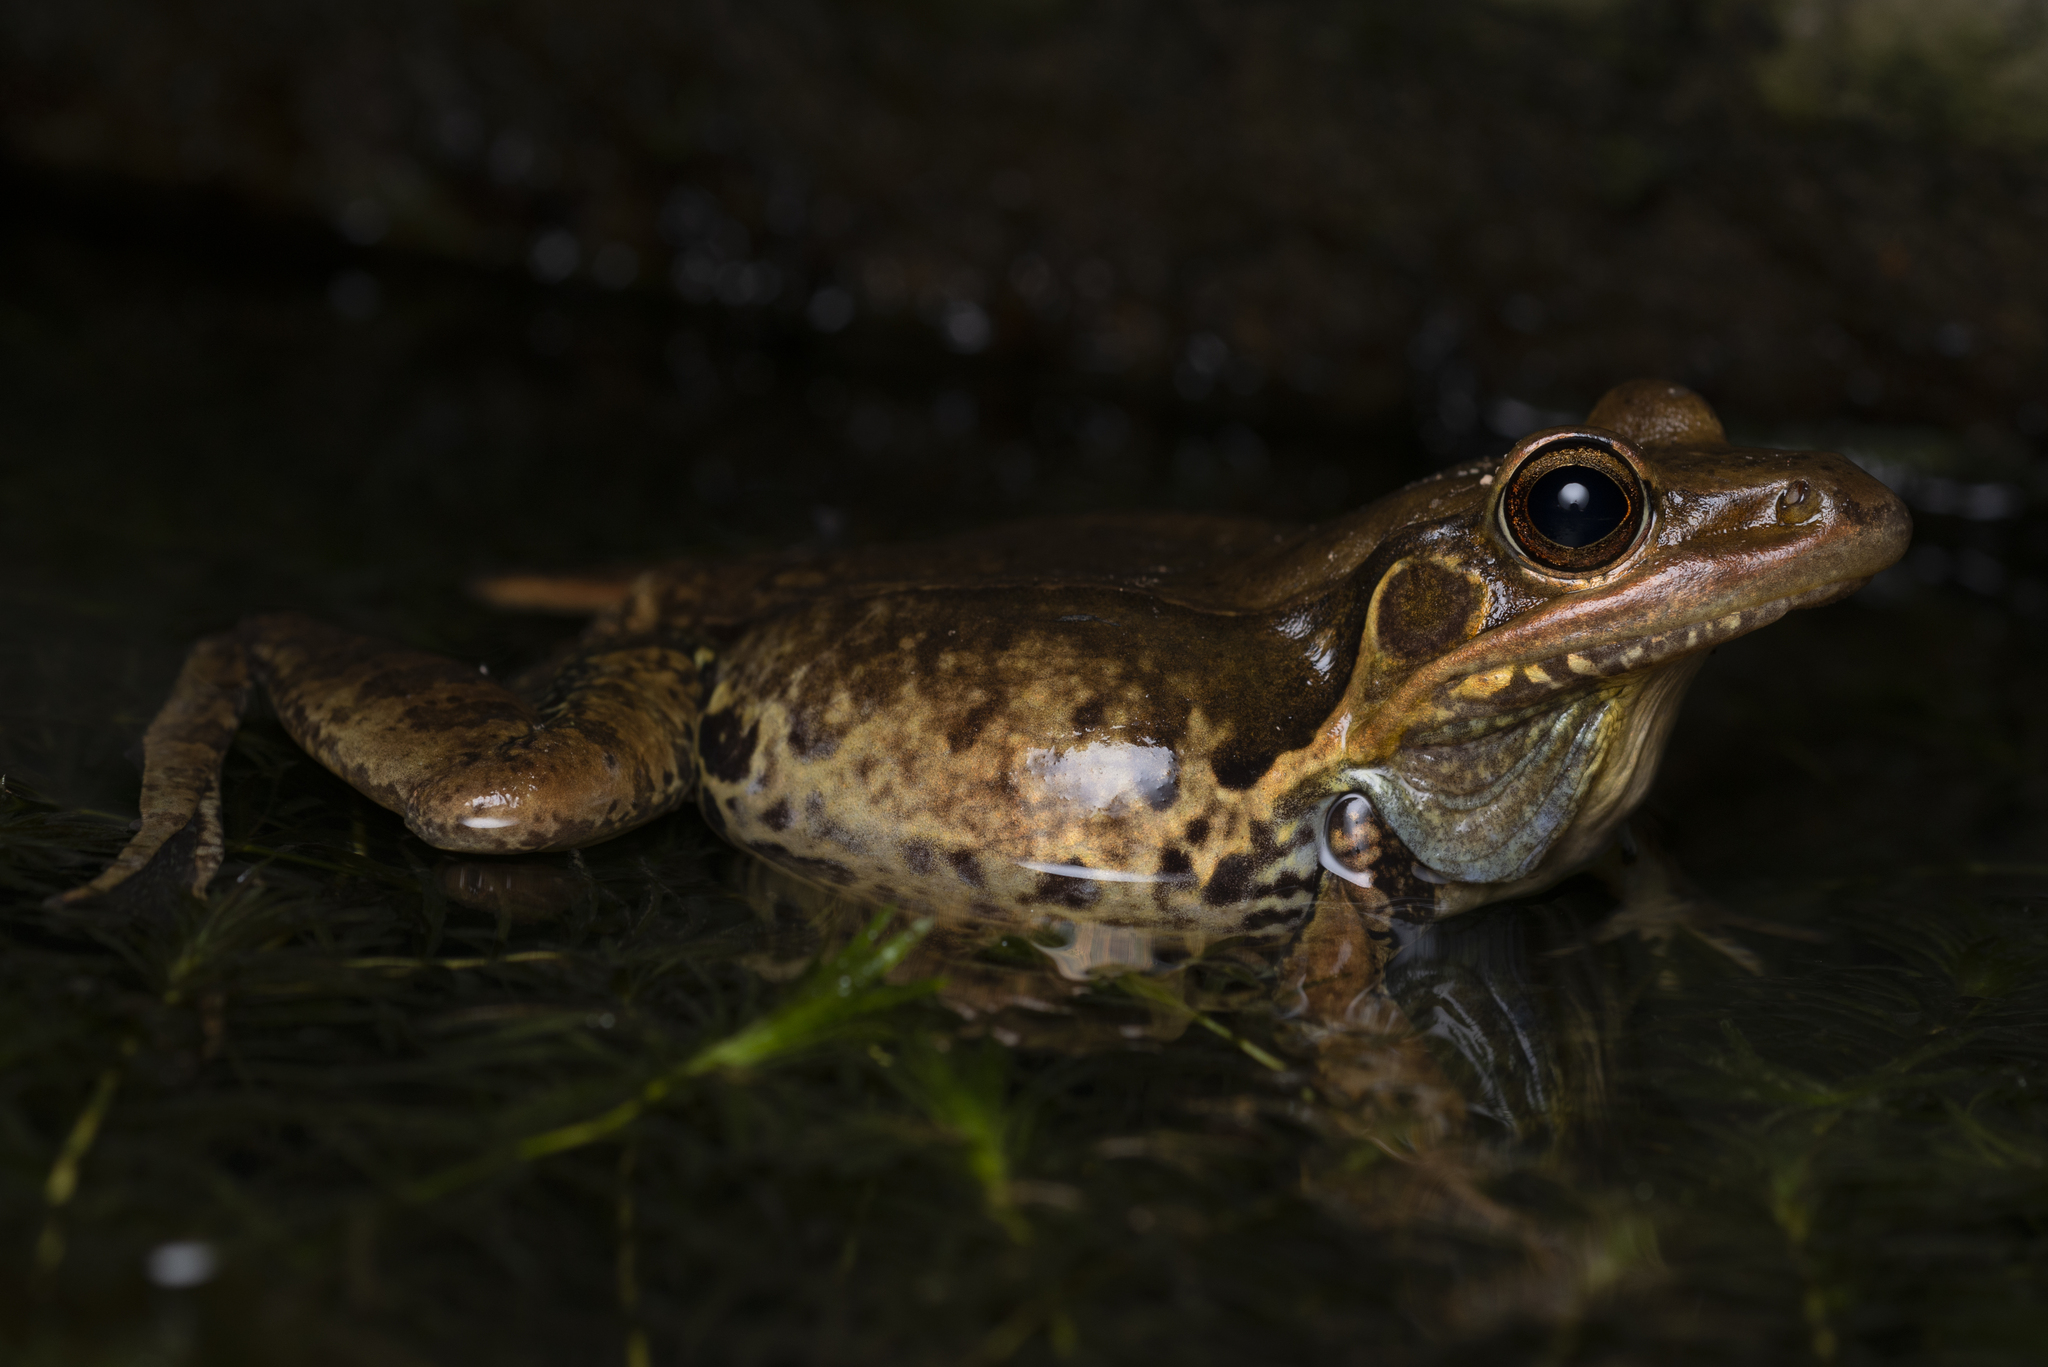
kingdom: Animalia
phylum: Chordata
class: Amphibia
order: Anura
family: Ranidae
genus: Sylvirana
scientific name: Sylvirana guentheri
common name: Guenther's amoy frog
